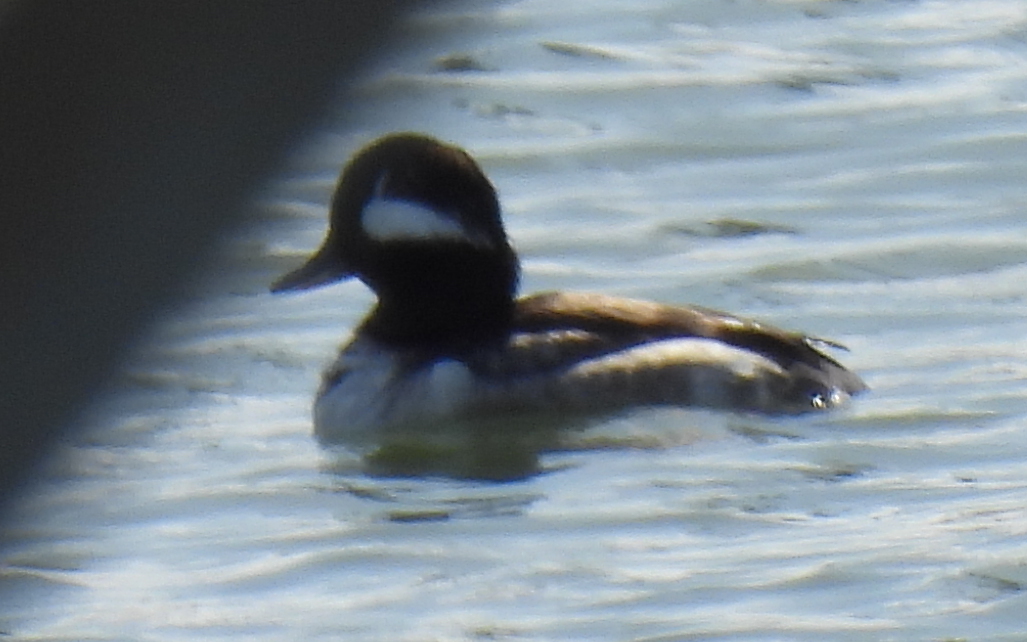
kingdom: Animalia
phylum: Chordata
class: Aves
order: Anseriformes
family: Anatidae
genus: Bucephala
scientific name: Bucephala albeola
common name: Bufflehead
